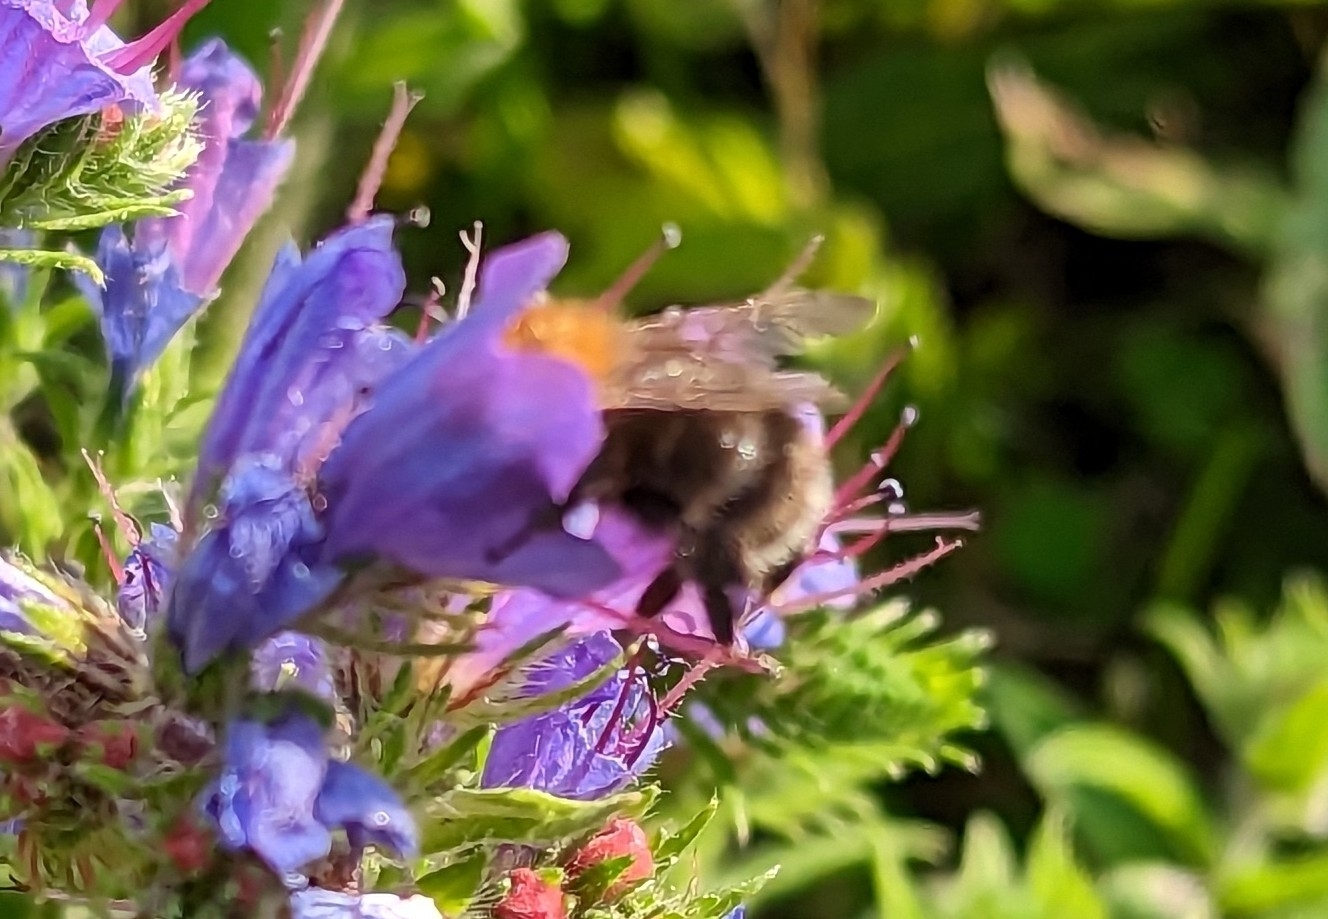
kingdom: Animalia
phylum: Arthropoda
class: Insecta
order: Hymenoptera
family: Apidae
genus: Bombus
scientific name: Bombus hypnorum
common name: New garden bumblebee
